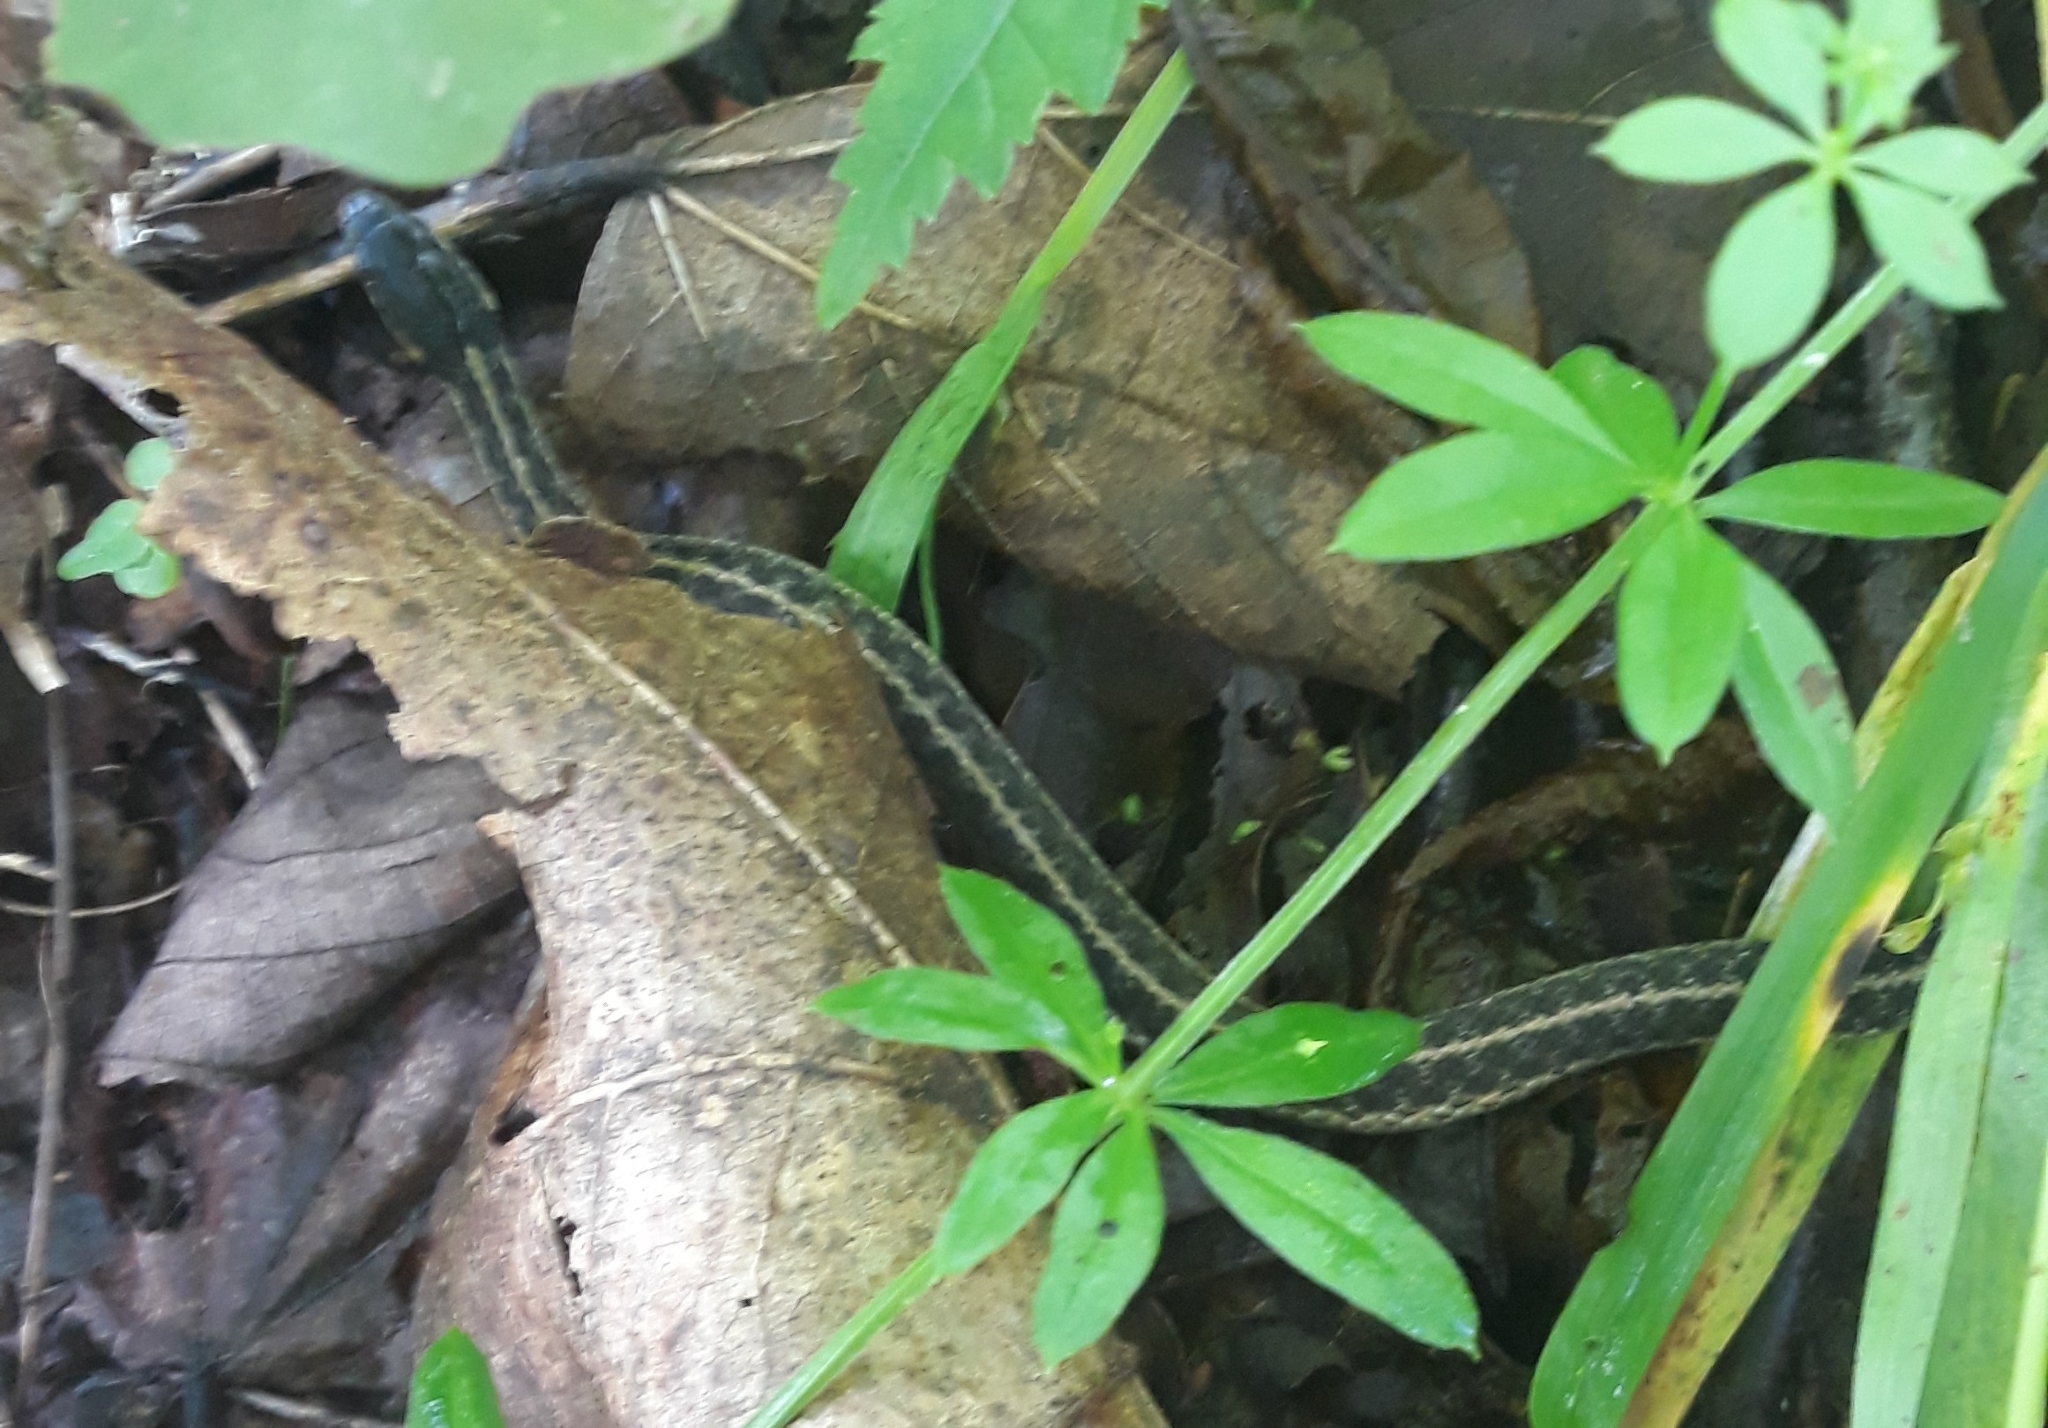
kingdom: Animalia
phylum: Chordata
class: Squamata
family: Colubridae
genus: Thamnophis
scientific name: Thamnophis sirtalis
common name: Common garter snake
